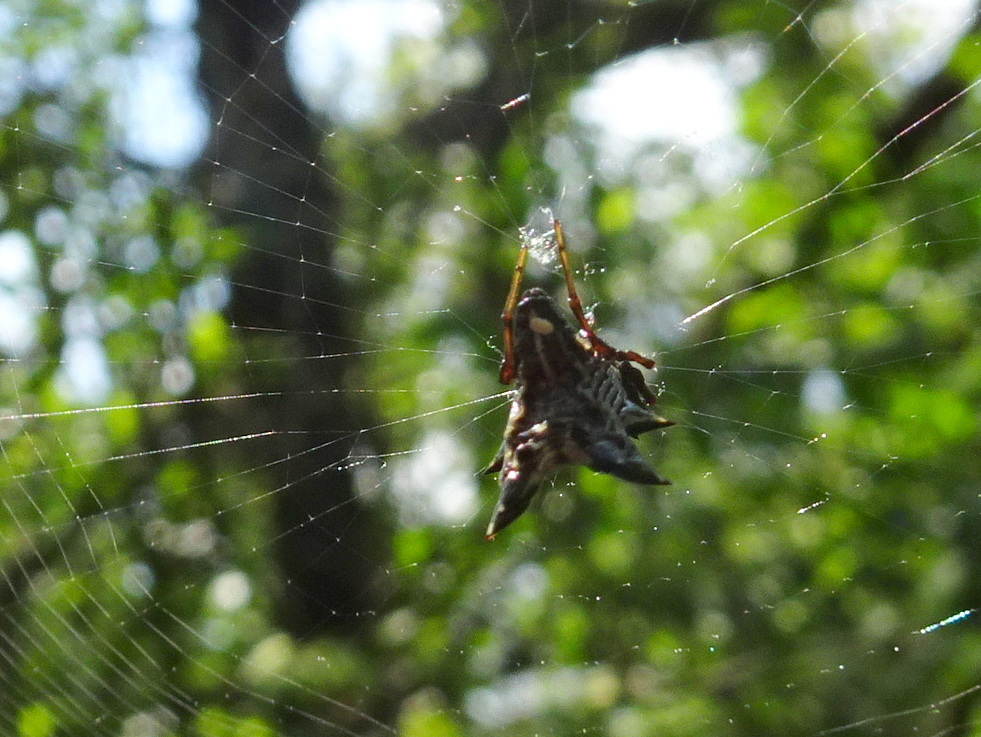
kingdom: Animalia
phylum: Arthropoda
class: Arachnida
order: Araneae
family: Araneidae
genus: Micrathena
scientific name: Micrathena gracilis
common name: Orb weavers
